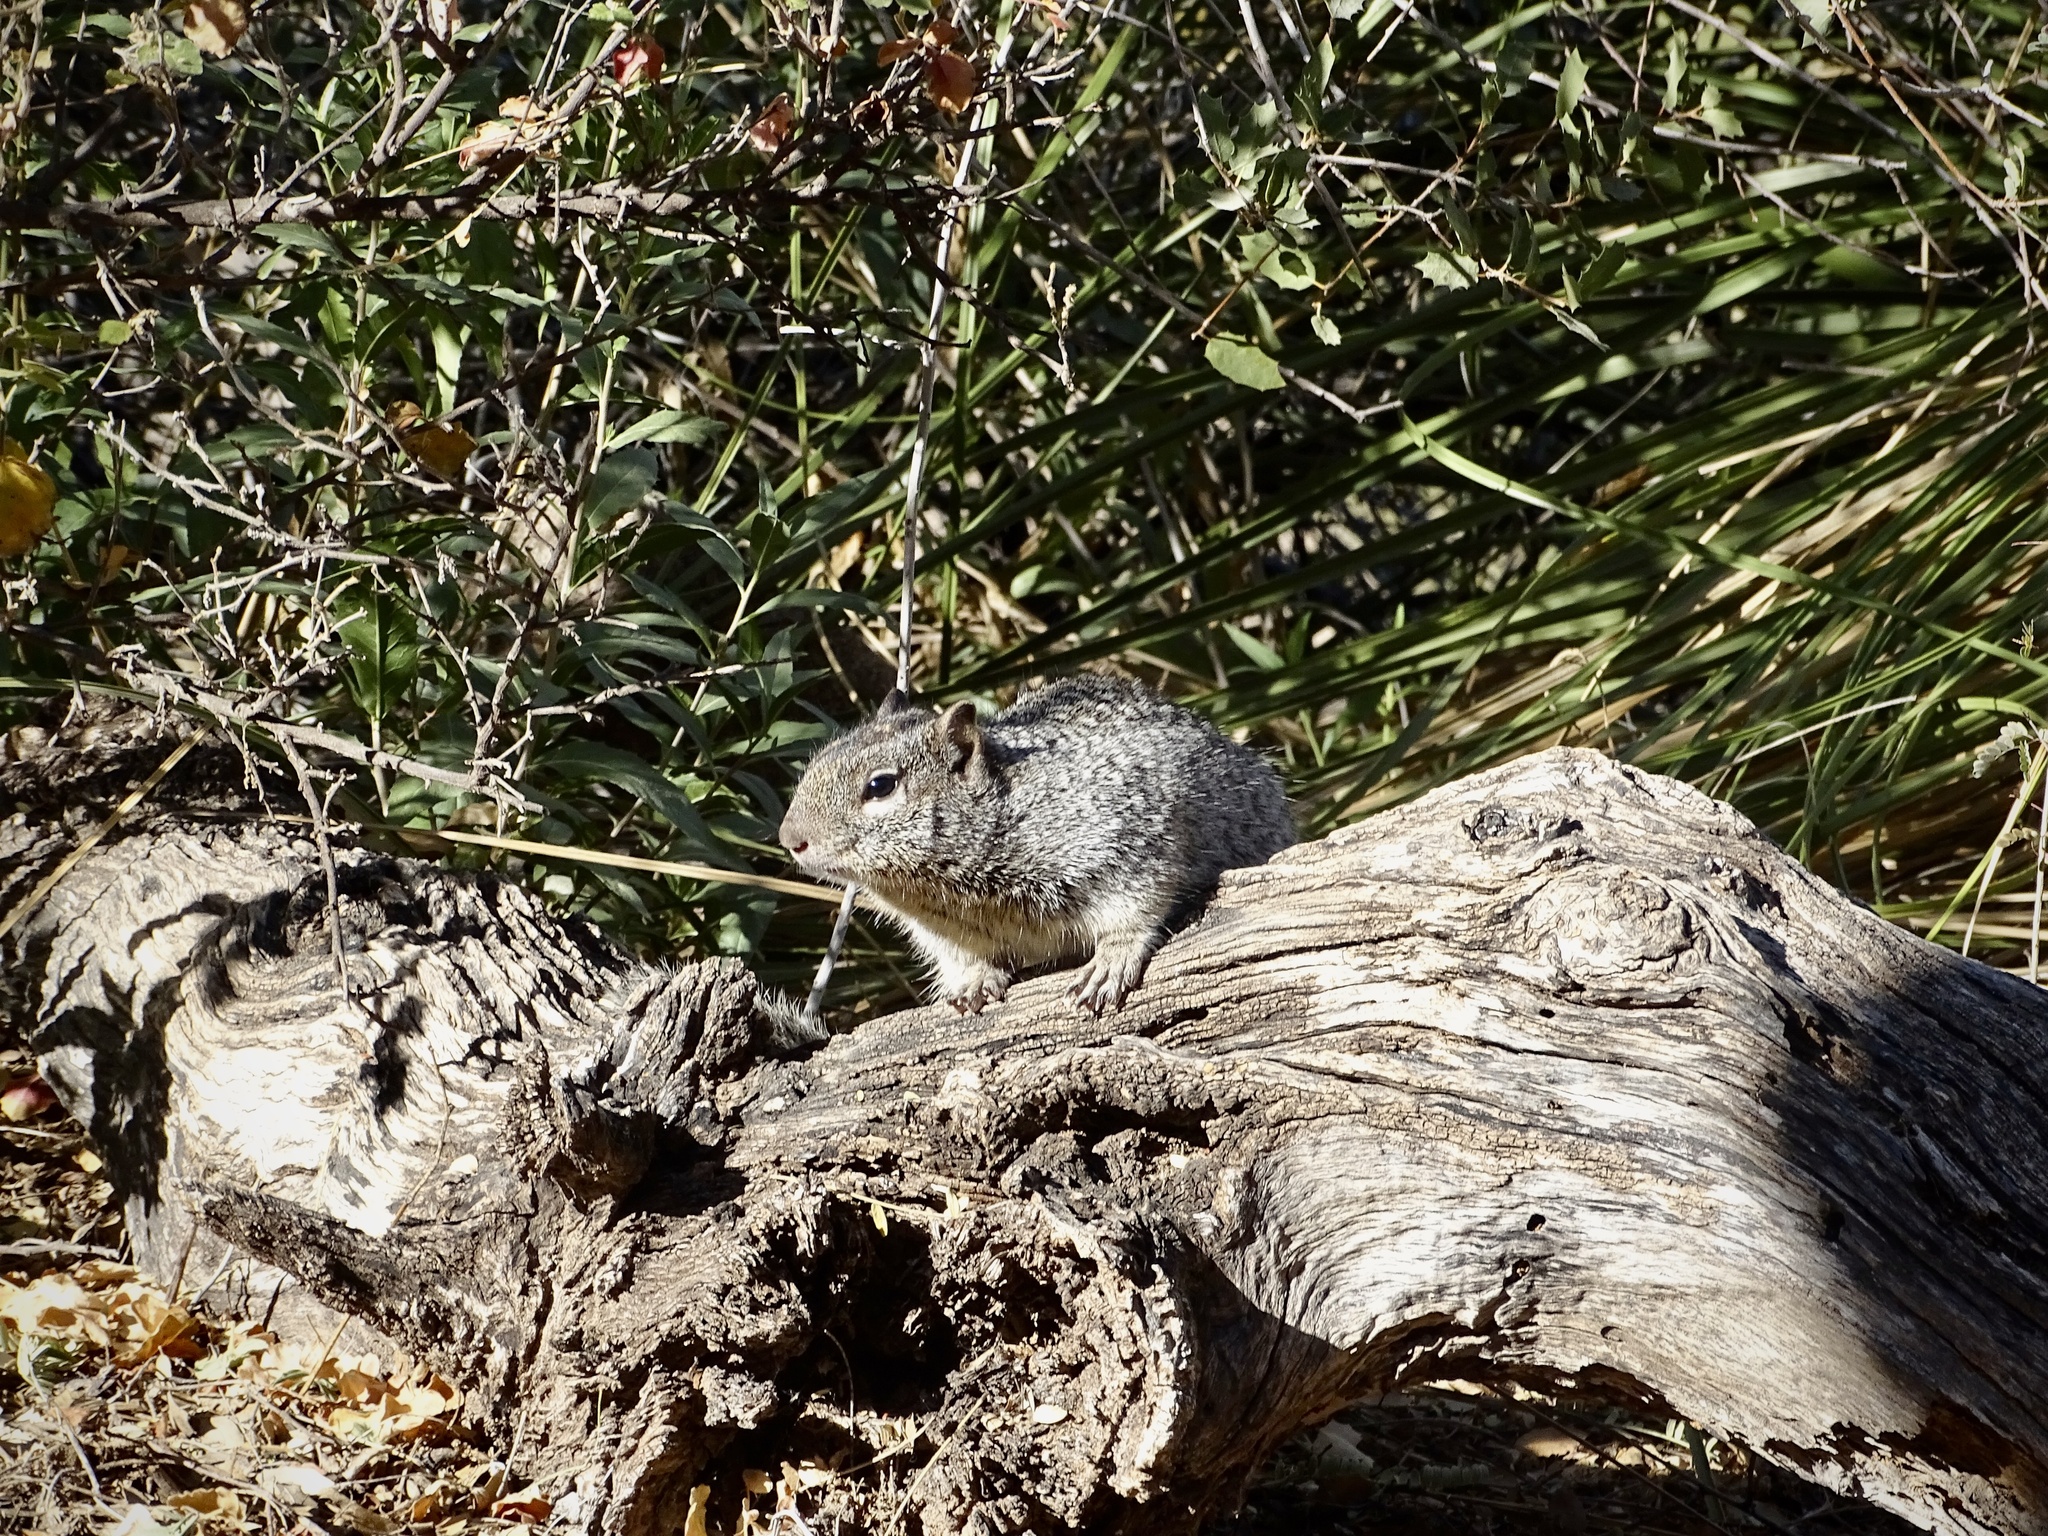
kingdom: Animalia
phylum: Chordata
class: Mammalia
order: Rodentia
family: Sciuridae
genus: Otospermophilus
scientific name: Otospermophilus variegatus
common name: Rock squirrel
